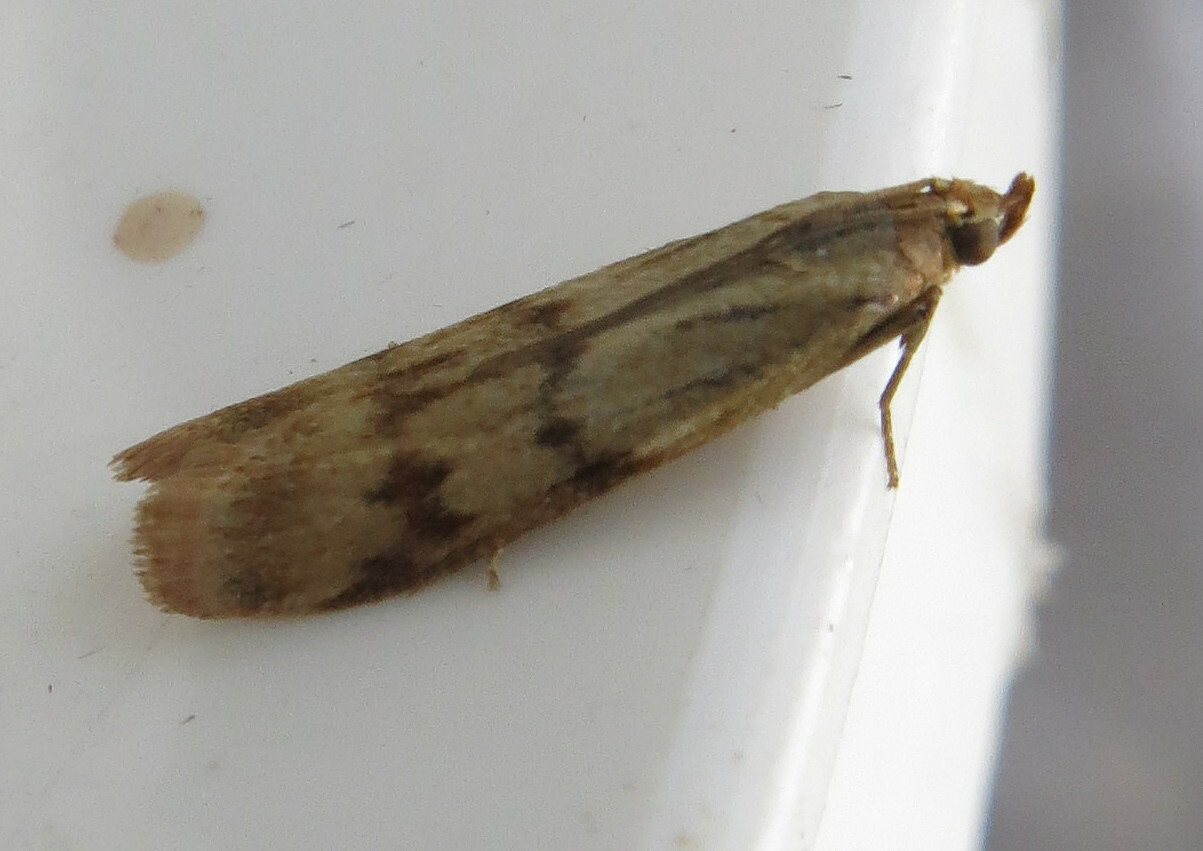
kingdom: Animalia
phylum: Arthropoda
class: Insecta
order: Lepidoptera
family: Pyralidae
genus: Homoeosoma
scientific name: Homoeosoma sinuella
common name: Twin-barred knot-horn
